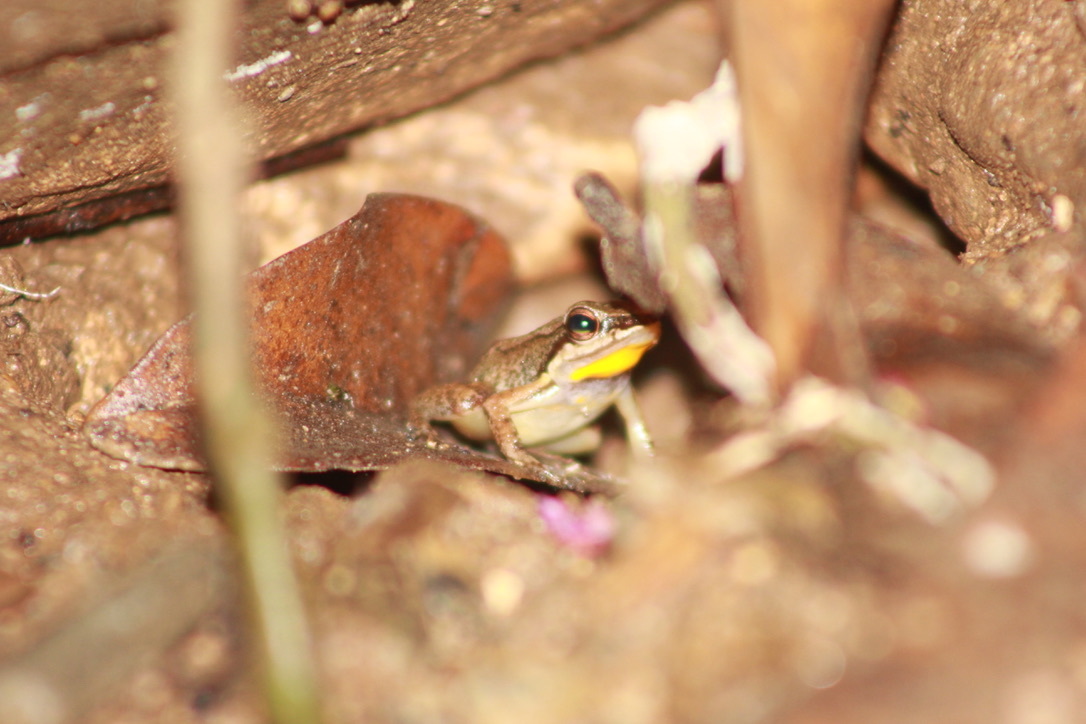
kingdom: Animalia
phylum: Chordata
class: Amphibia
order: Anura
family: Aromobatidae
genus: Mannophryne
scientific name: Mannophryne trinitatis
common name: Trinidad poison frog
